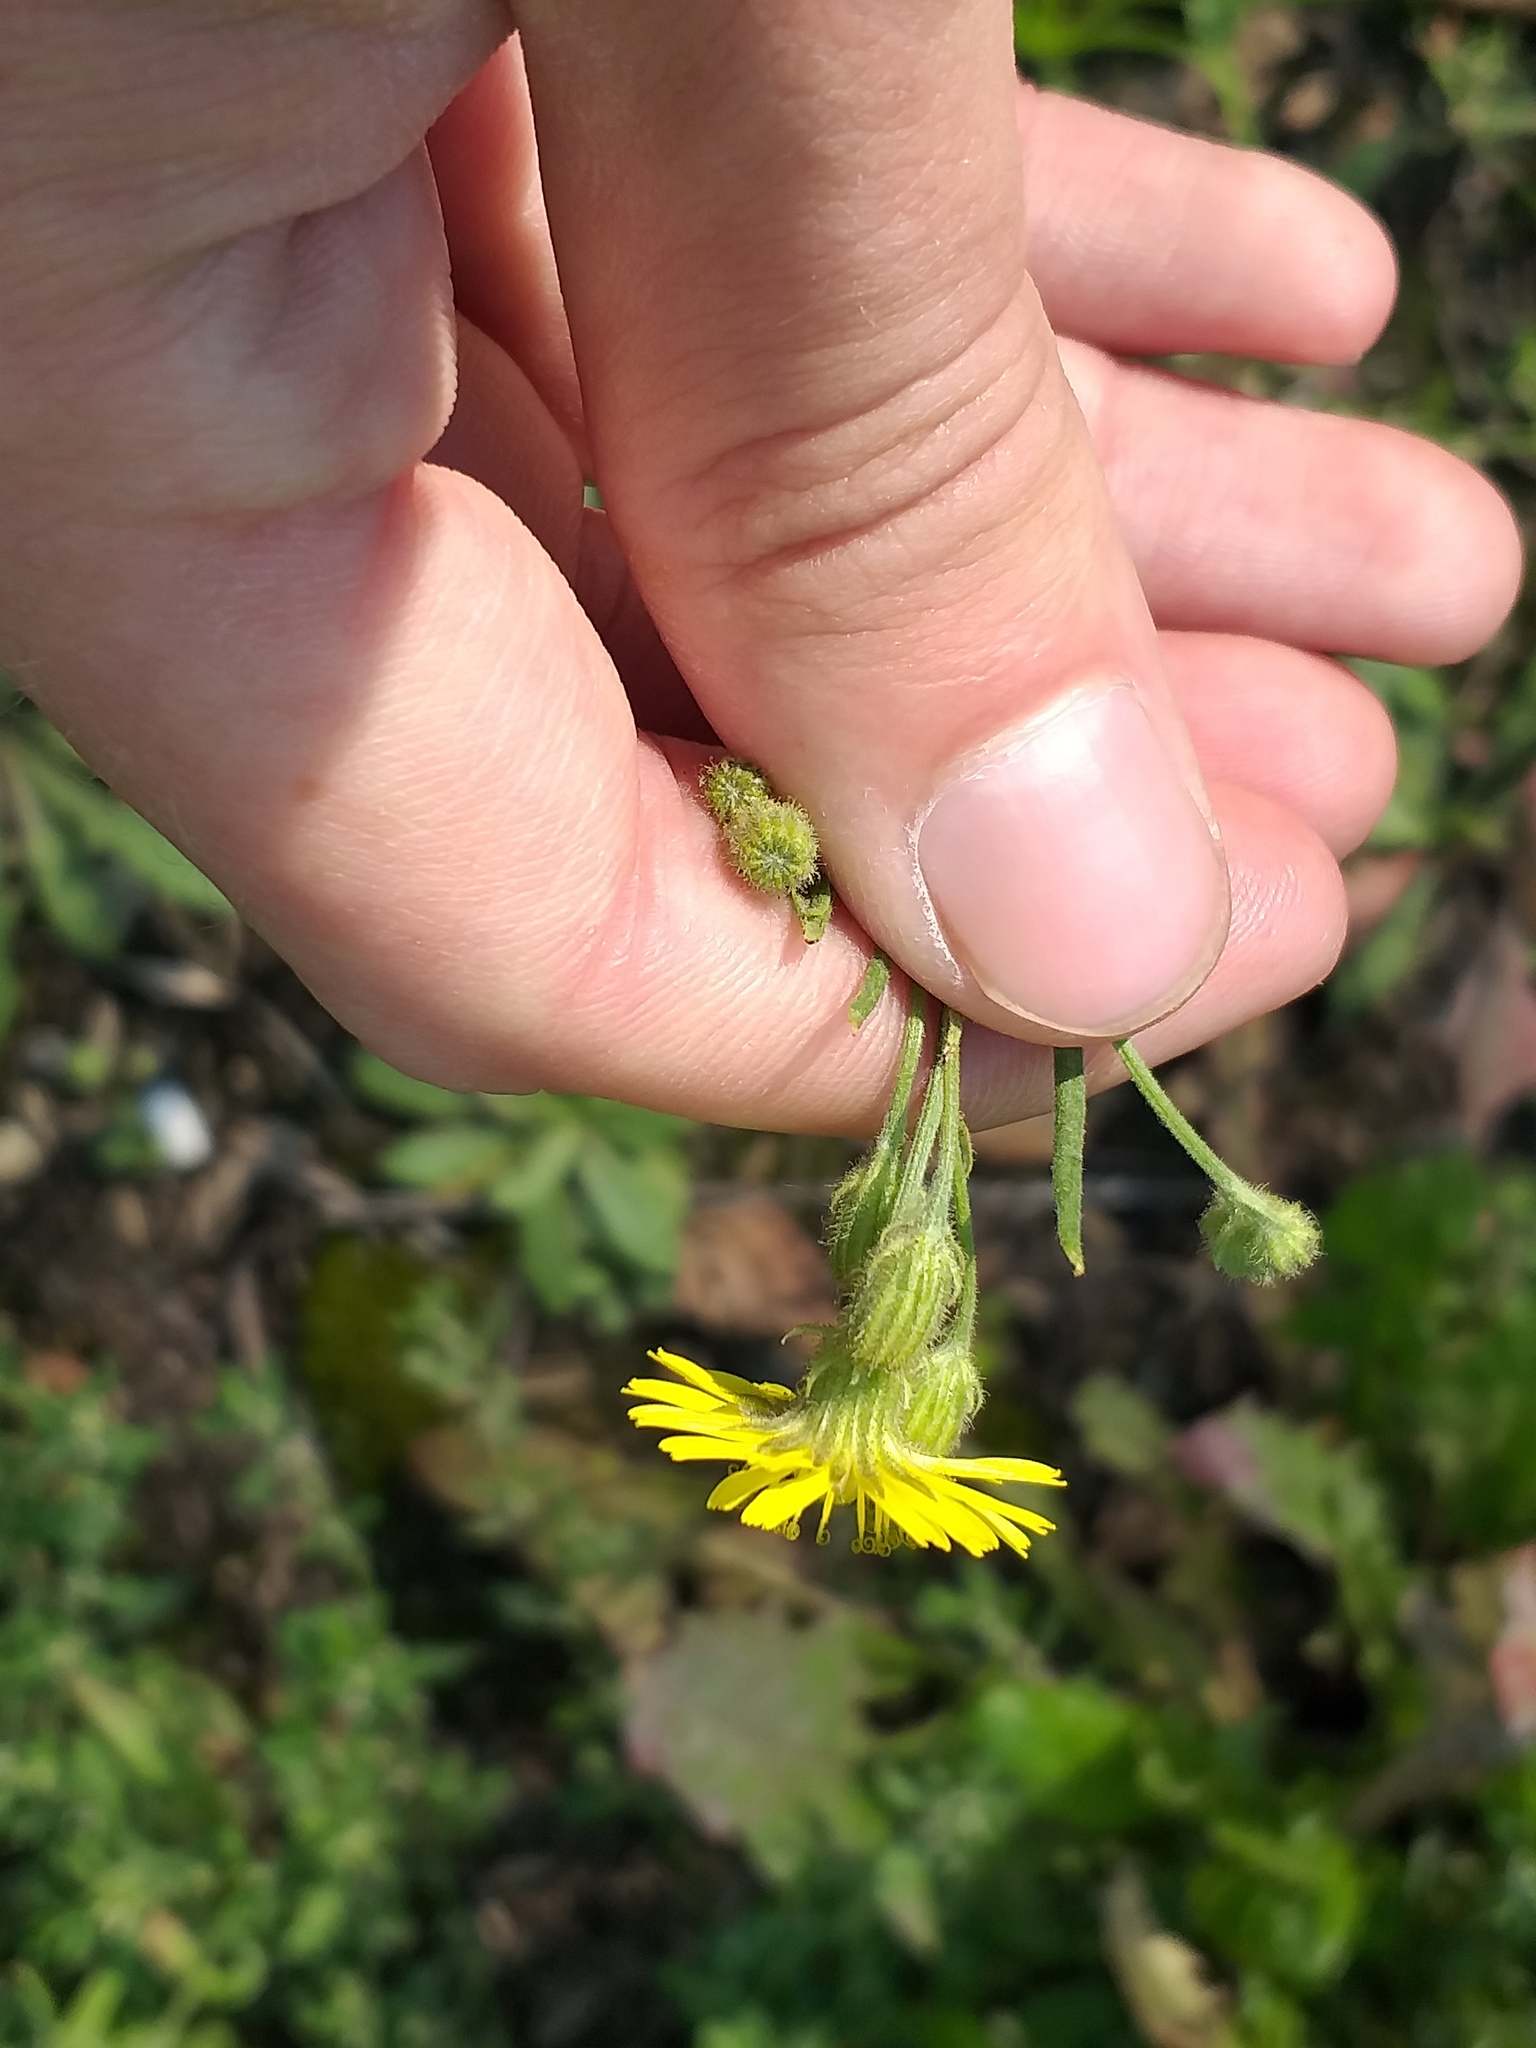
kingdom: Plantae
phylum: Tracheophyta
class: Magnoliopsida
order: Asterales
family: Asteraceae
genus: Crepis
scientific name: Crepis tectorum
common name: Narrow-leaved hawk's-beard
